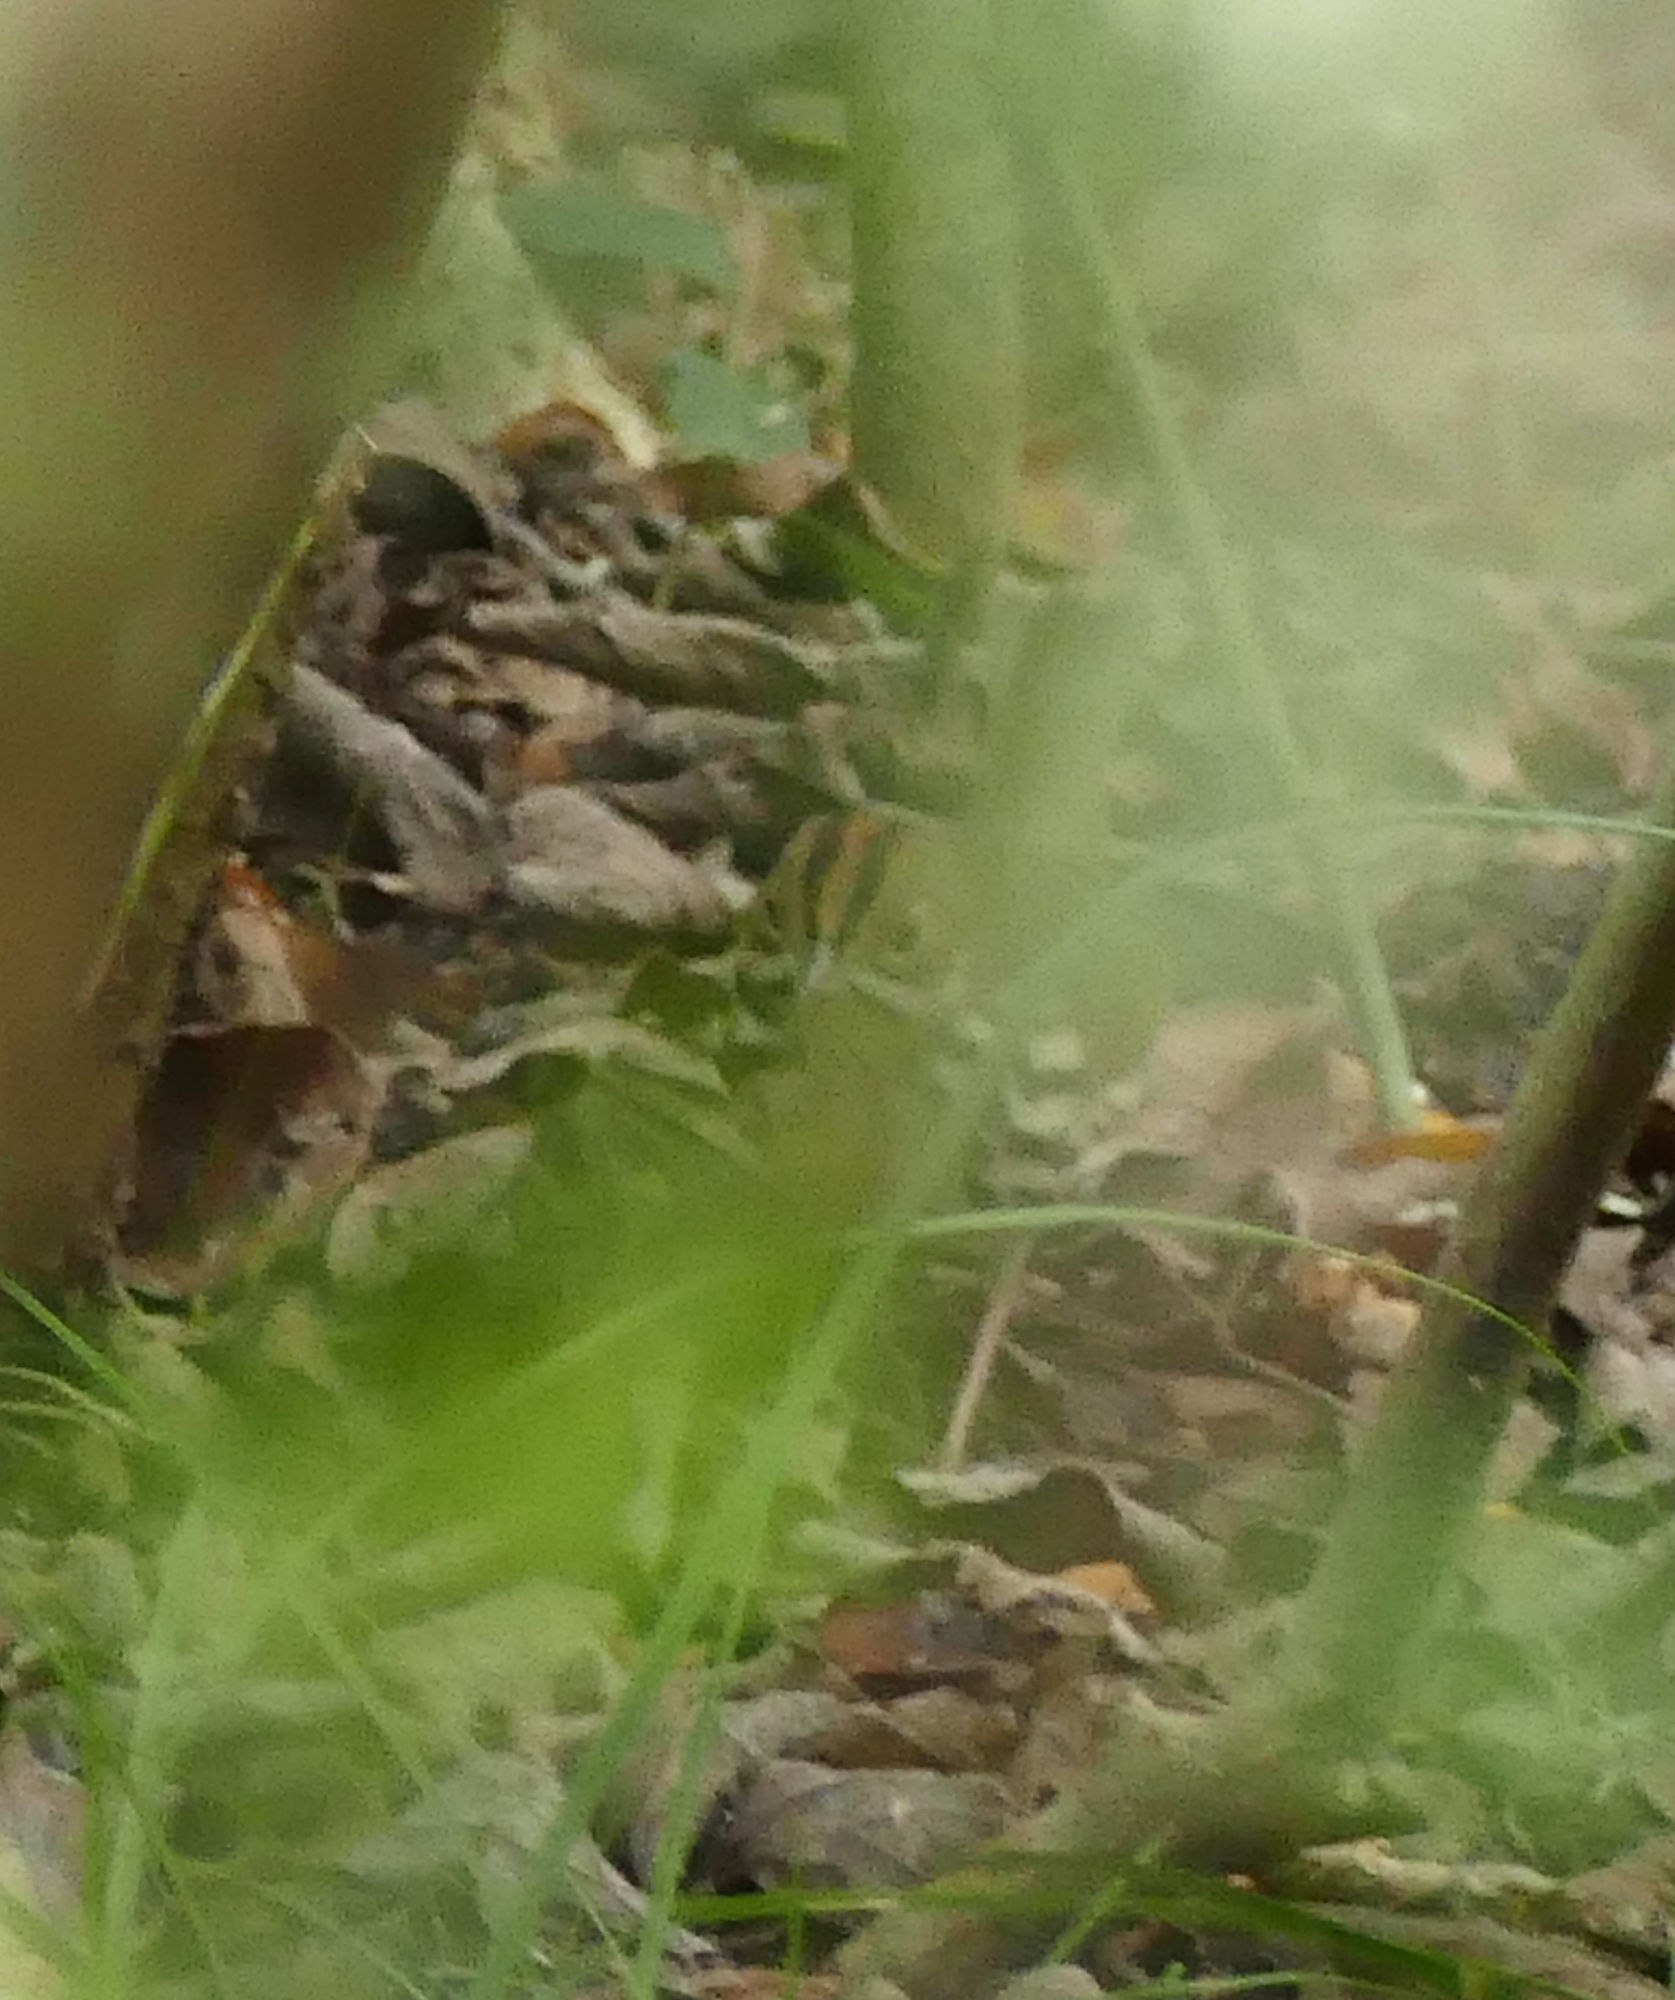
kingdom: Animalia
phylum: Chordata
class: Aves
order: Passeriformes
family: Parulidae
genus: Seiurus
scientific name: Seiurus aurocapilla
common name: Ovenbird
